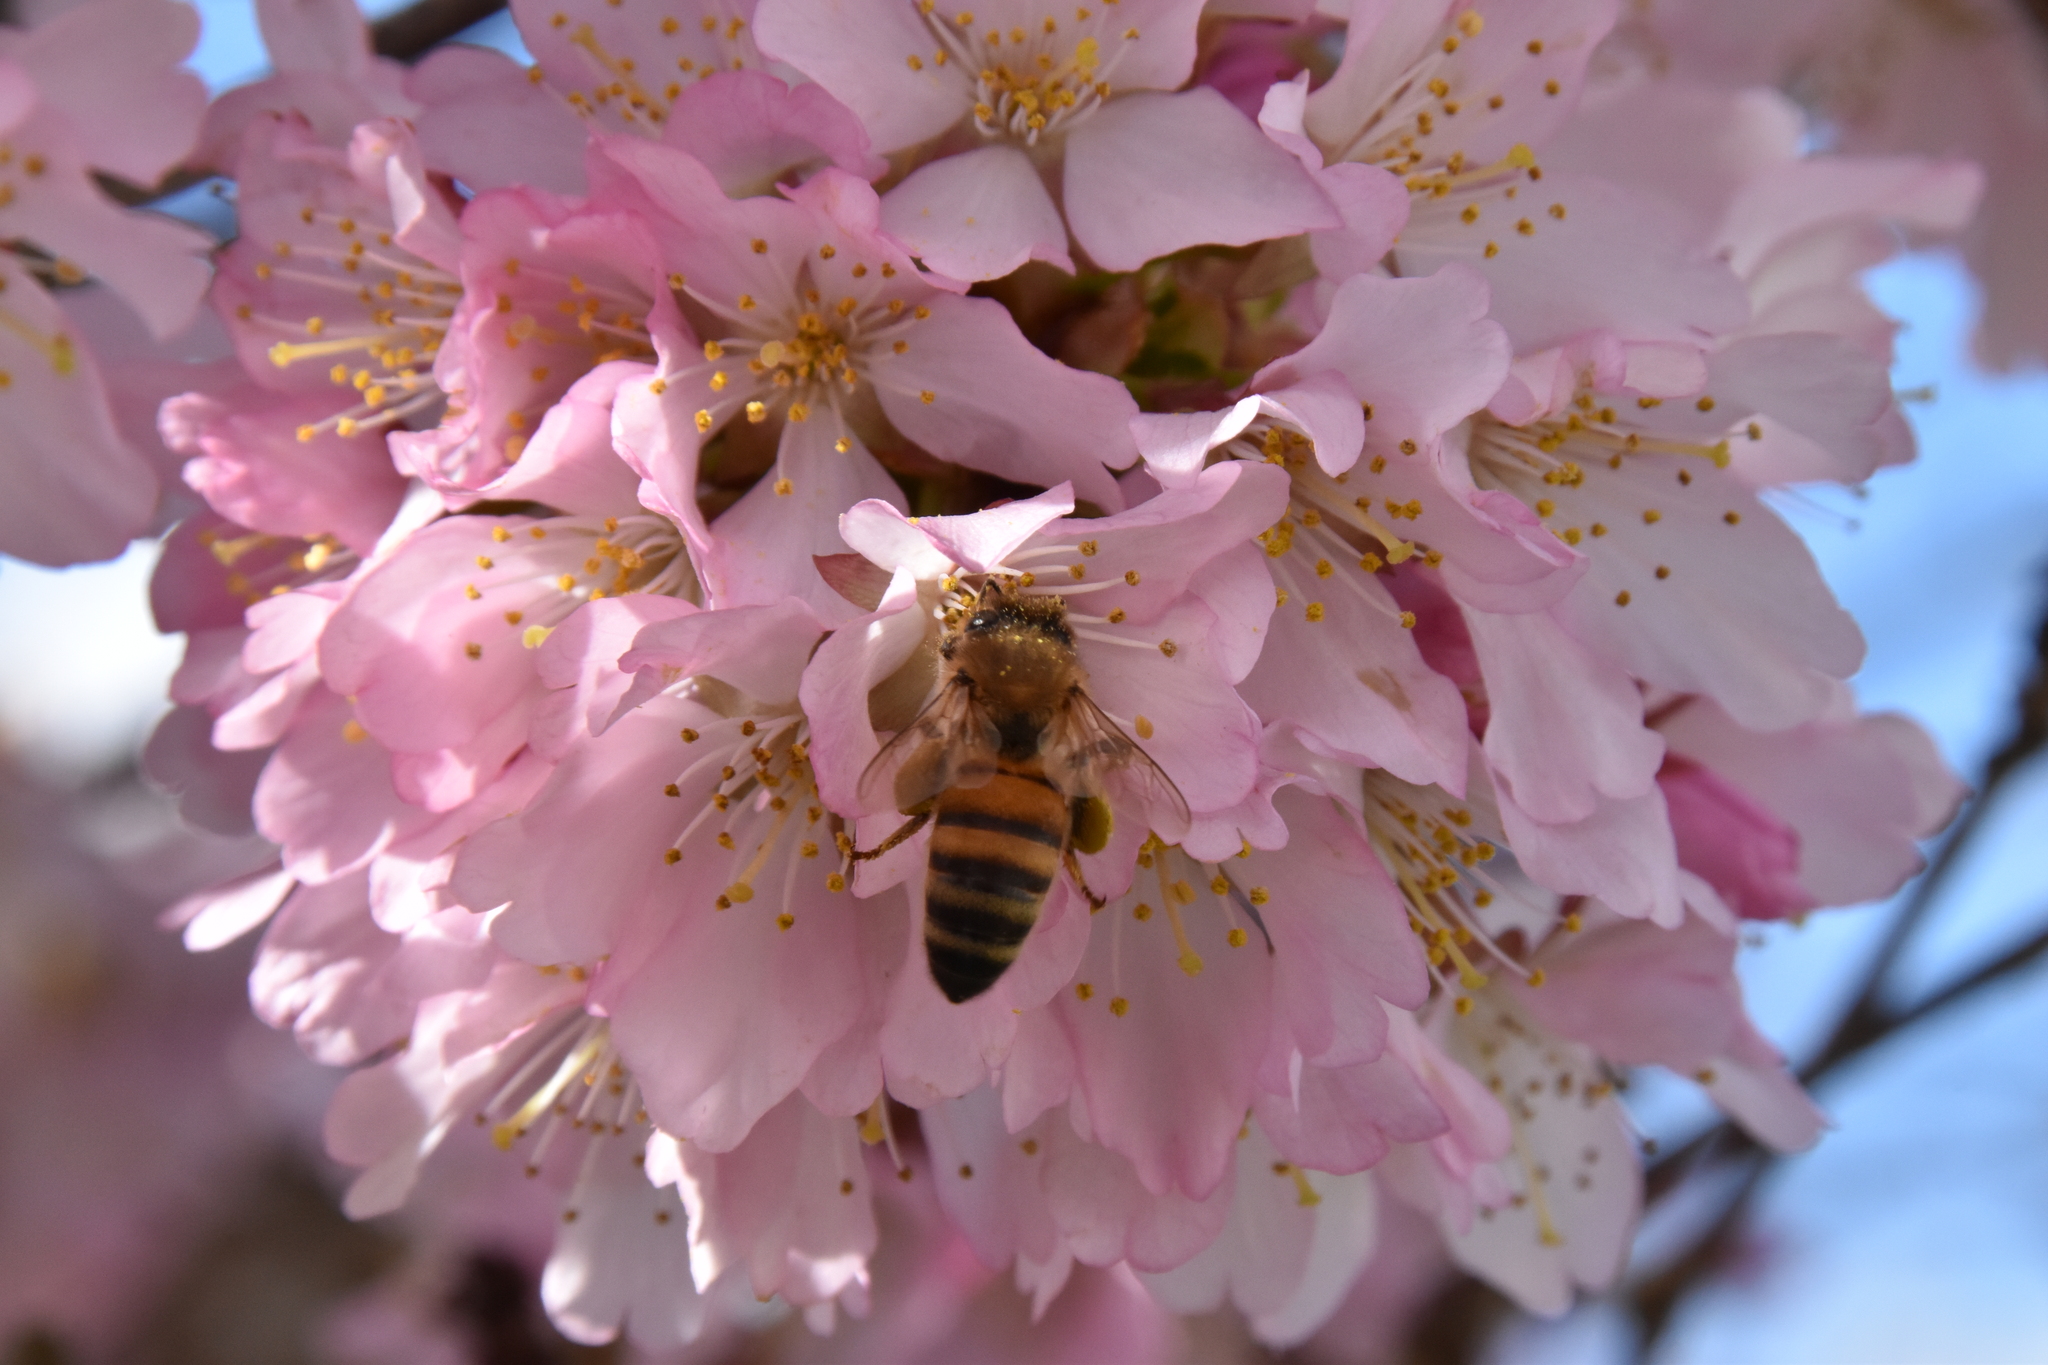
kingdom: Animalia
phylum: Arthropoda
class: Insecta
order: Hymenoptera
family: Apidae
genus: Apis
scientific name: Apis mellifera
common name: Honey bee
